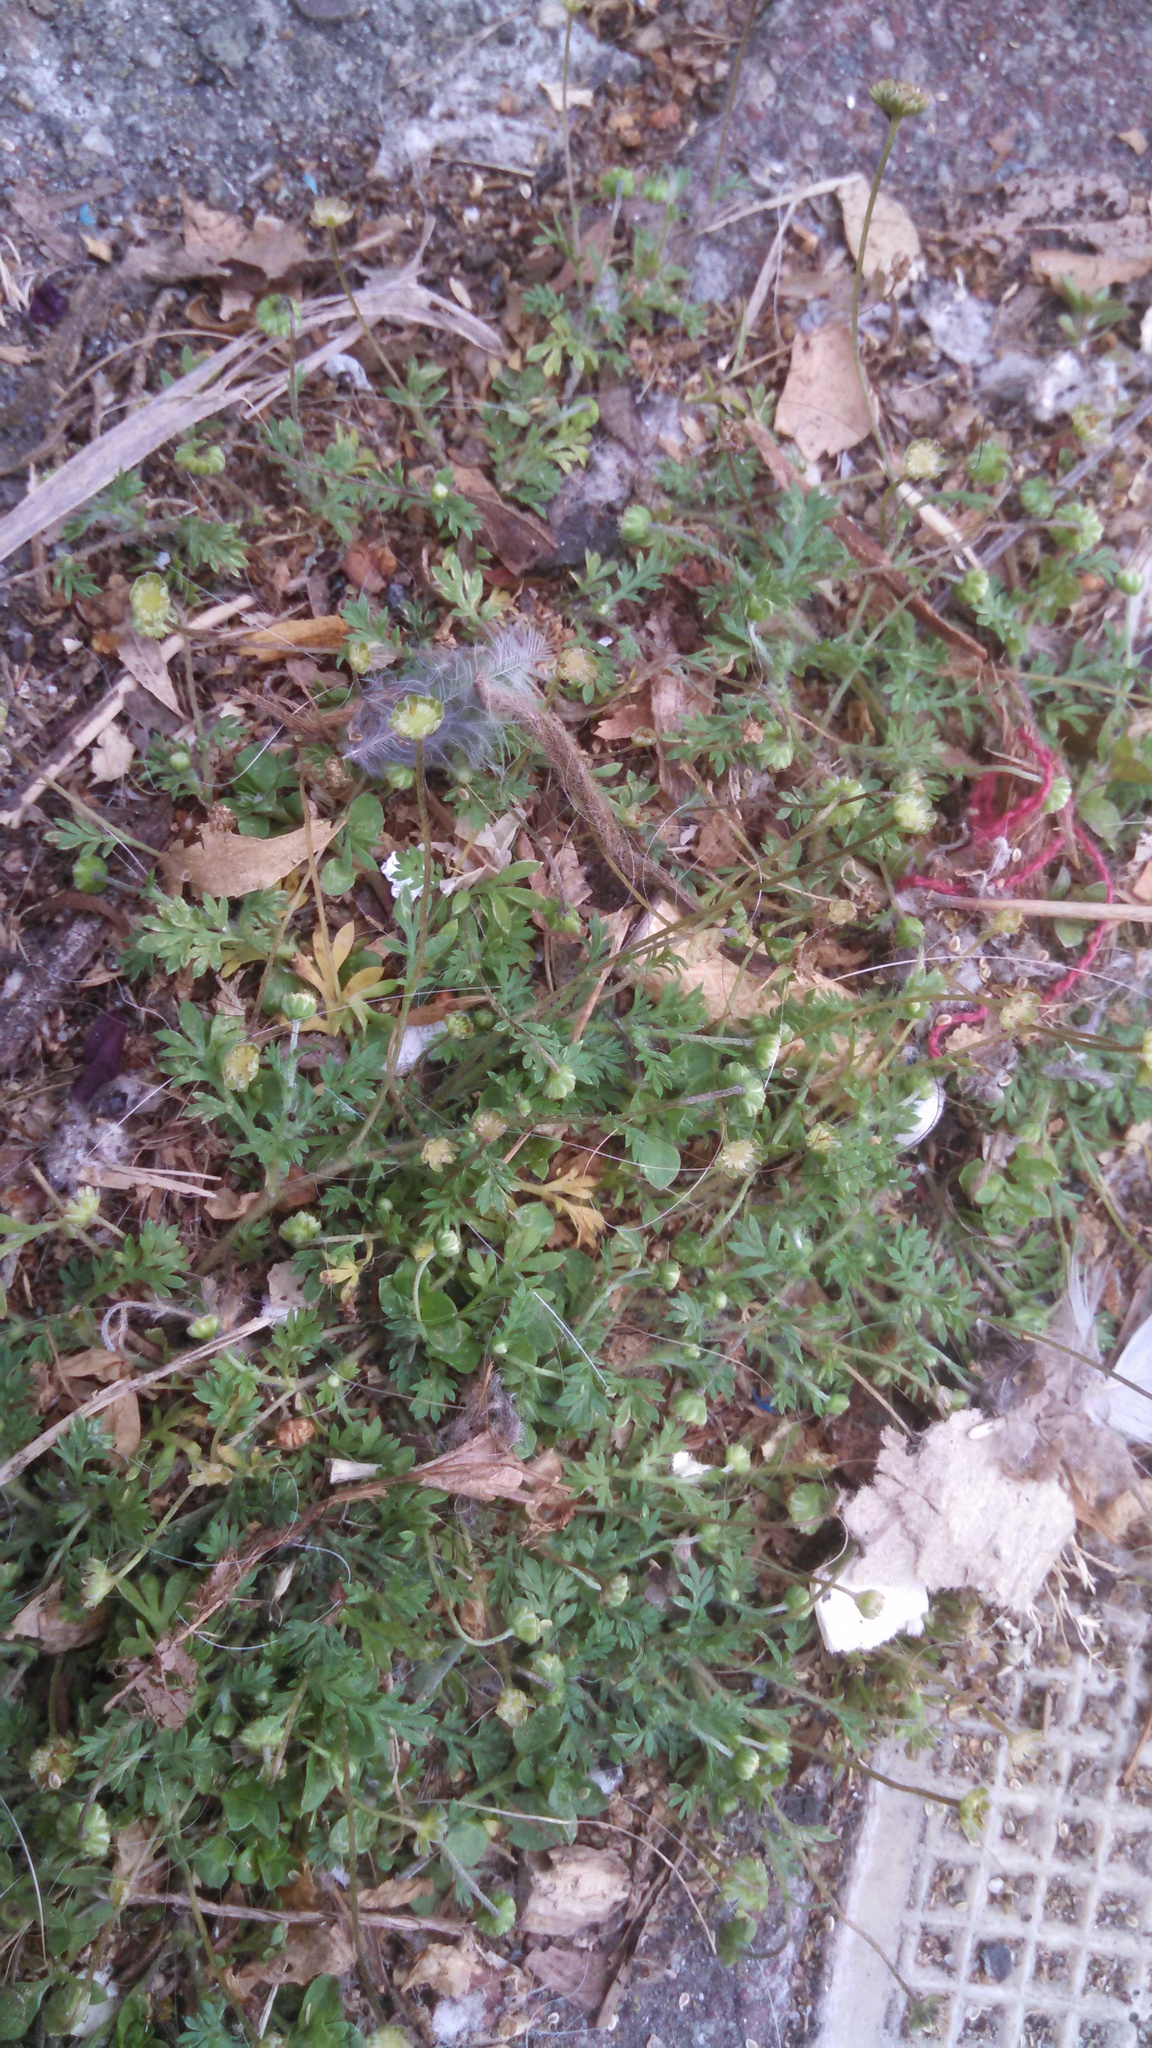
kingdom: Plantae
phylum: Tracheophyta
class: Magnoliopsida
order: Asterales
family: Asteraceae
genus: Cotula
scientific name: Cotula australis
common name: Australian waterbuttons
